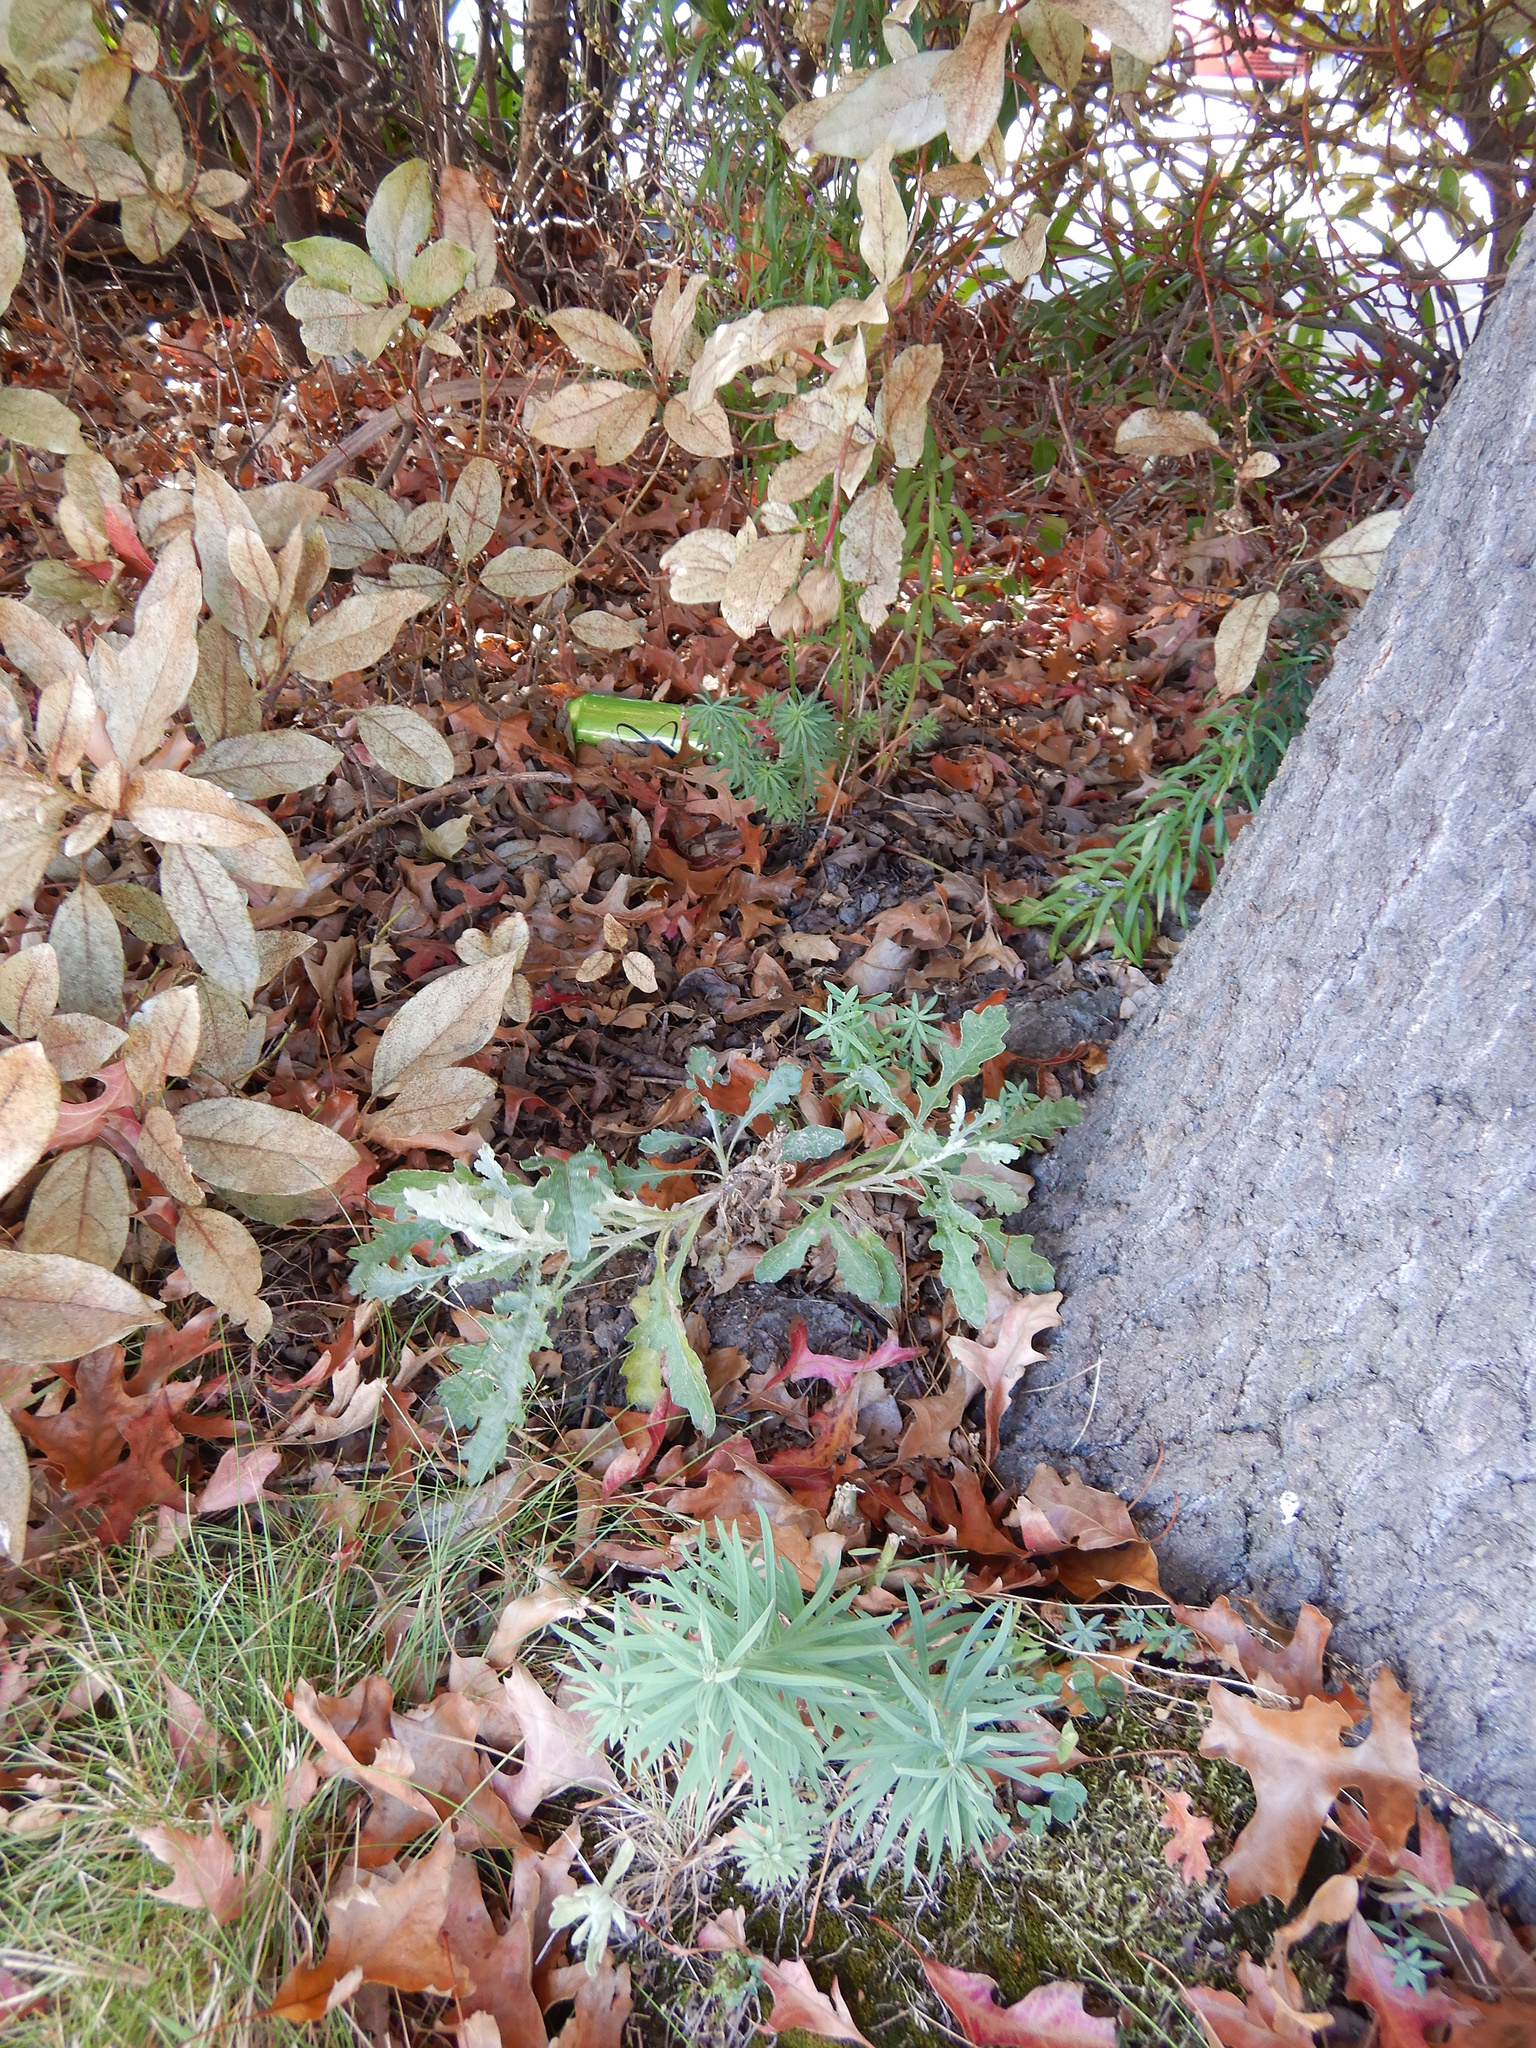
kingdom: Plantae
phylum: Tracheophyta
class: Magnoliopsida
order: Asterales
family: Asteraceae
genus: Senecio
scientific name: Senecio glomeratus
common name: Cutleaf burnweed
